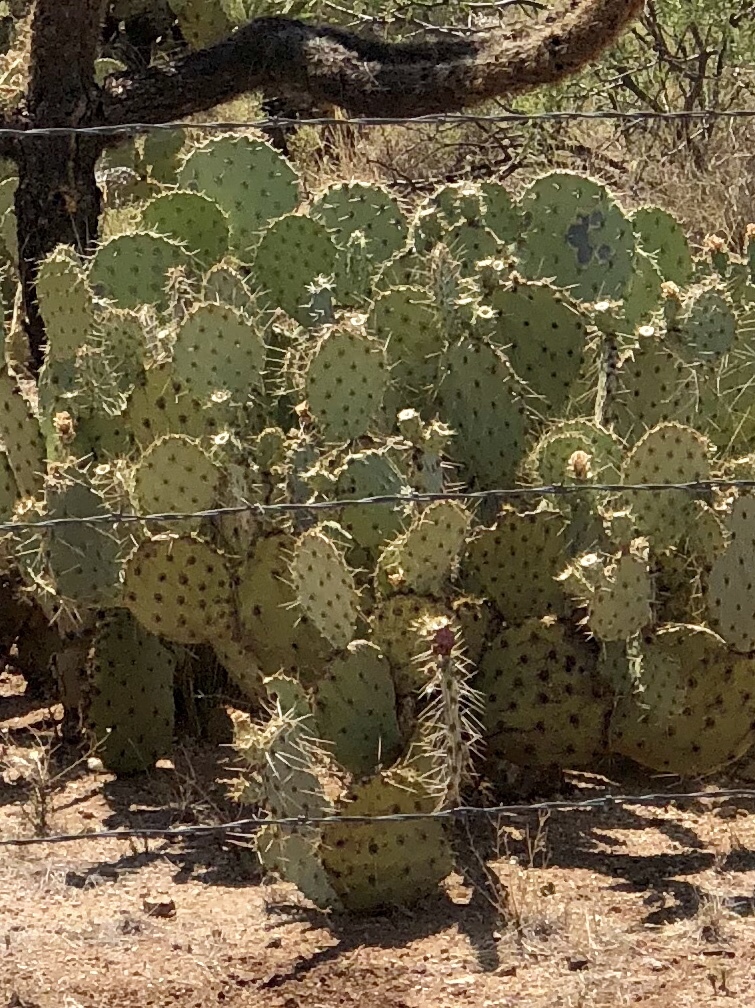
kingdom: Plantae
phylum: Tracheophyta
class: Magnoliopsida
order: Caryophyllales
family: Cactaceae
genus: Opuntia
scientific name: Opuntia engelmannii
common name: Cactus-apple
